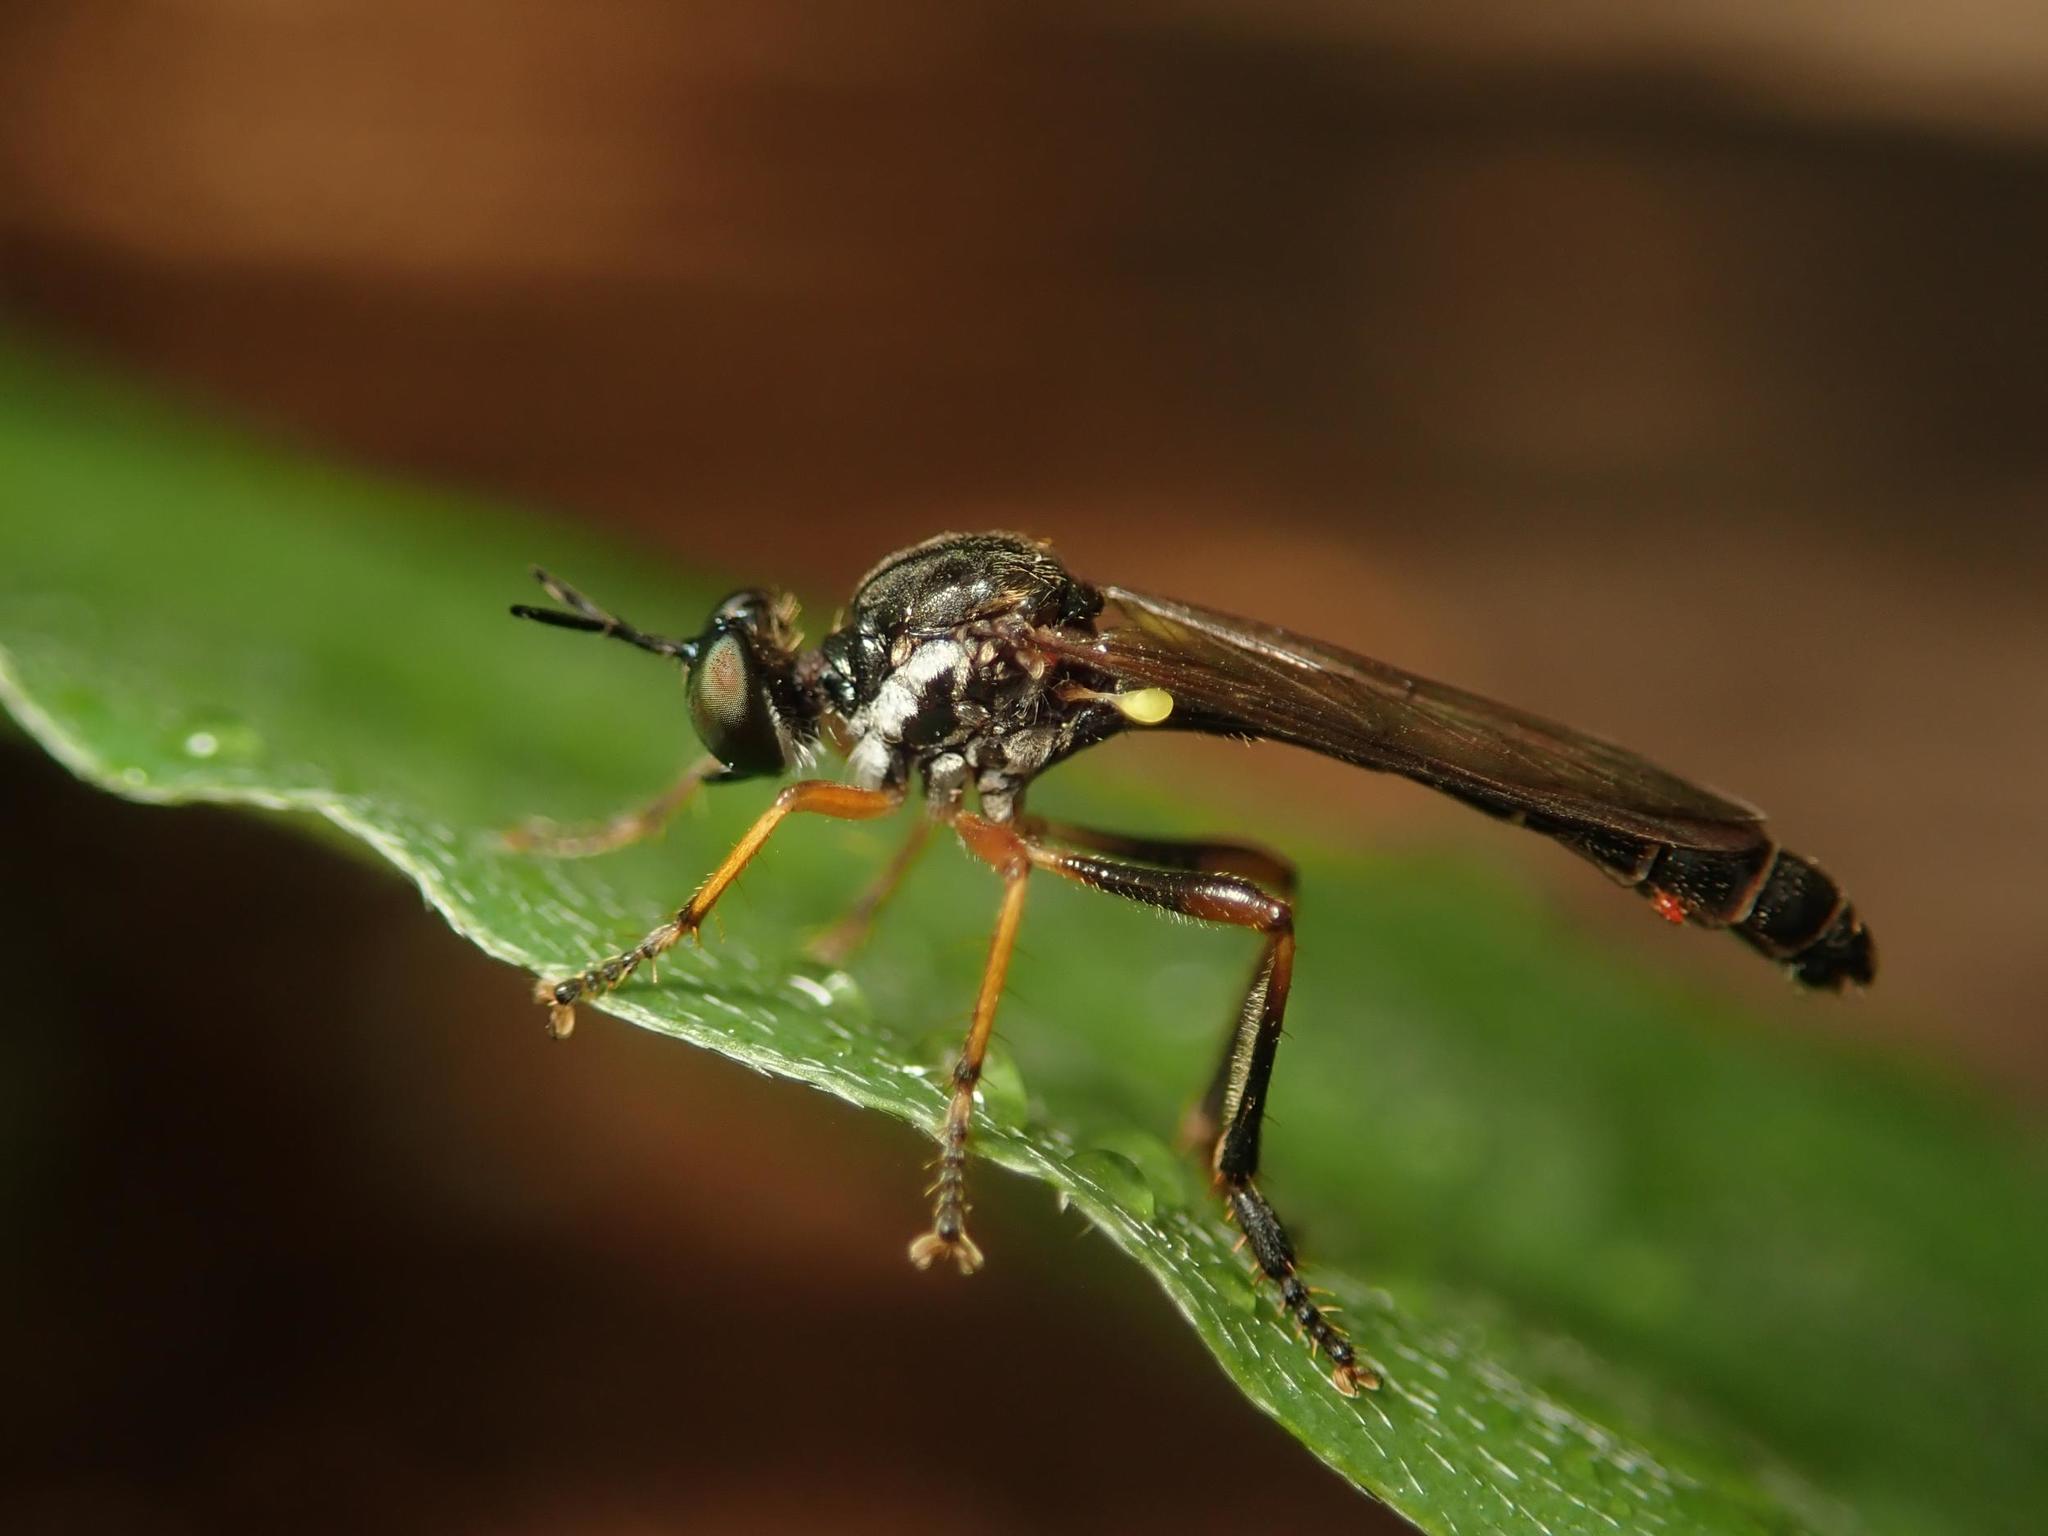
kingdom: Animalia
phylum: Arthropoda
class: Insecta
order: Diptera
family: Asilidae
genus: Dioctria
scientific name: Dioctria hyalipennis
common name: Stripe-legged robberfly
